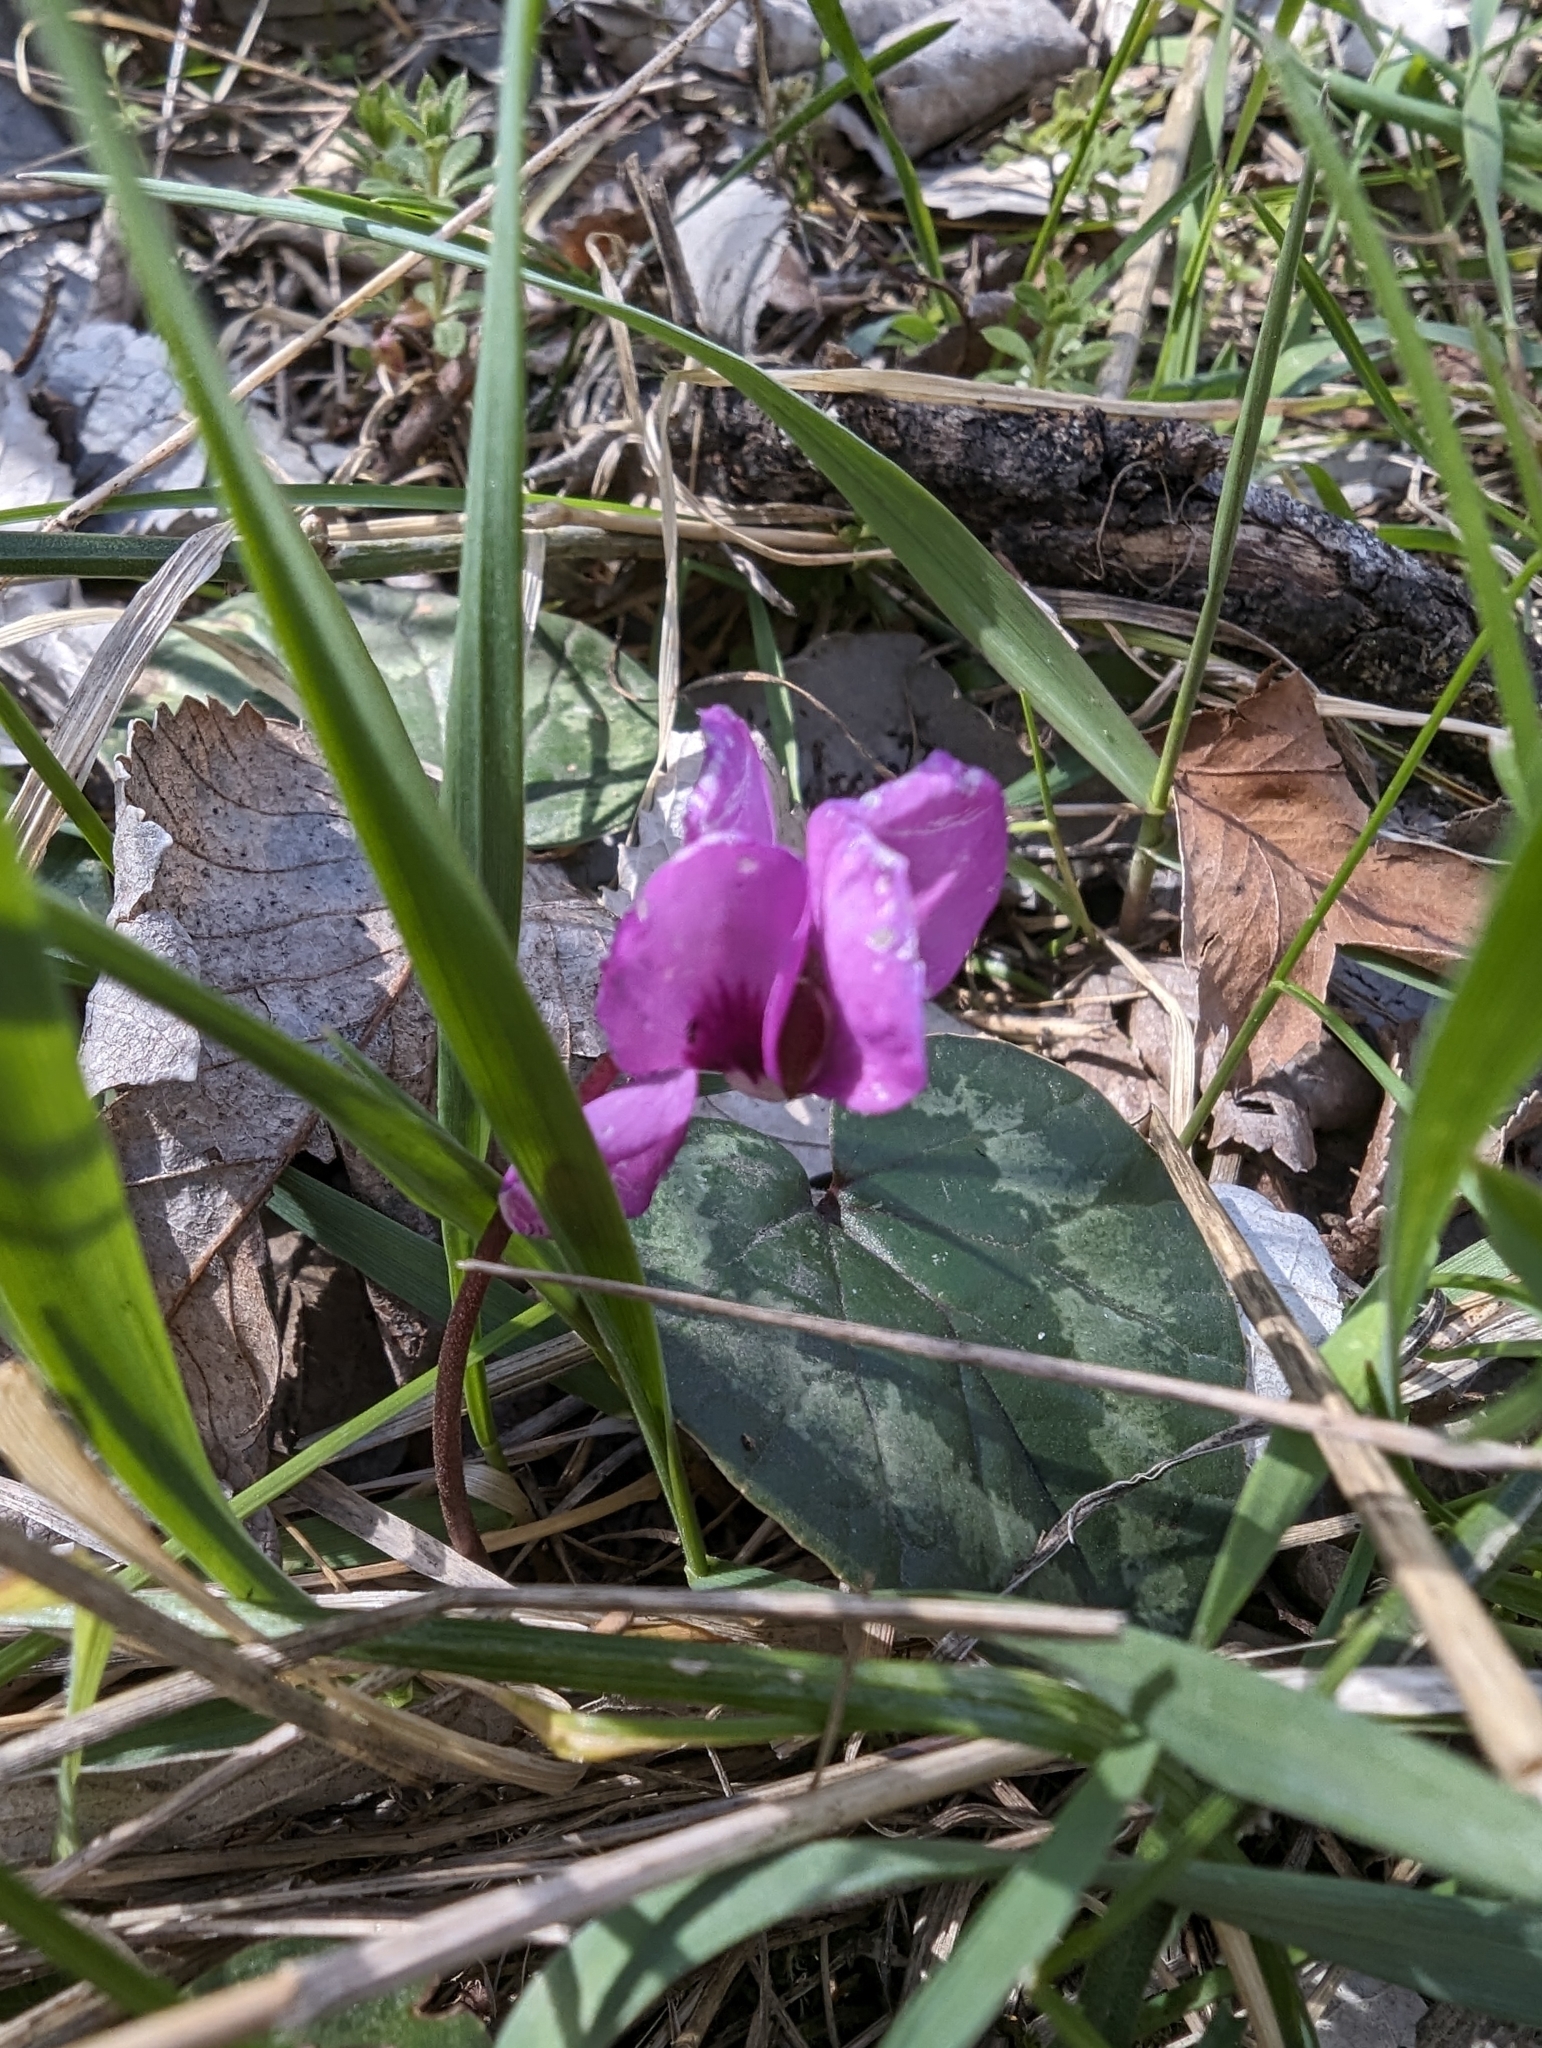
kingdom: Plantae
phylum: Tracheophyta
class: Magnoliopsida
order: Ericales
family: Primulaceae
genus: Cyclamen
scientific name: Cyclamen coum
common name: Eastern sowbread
